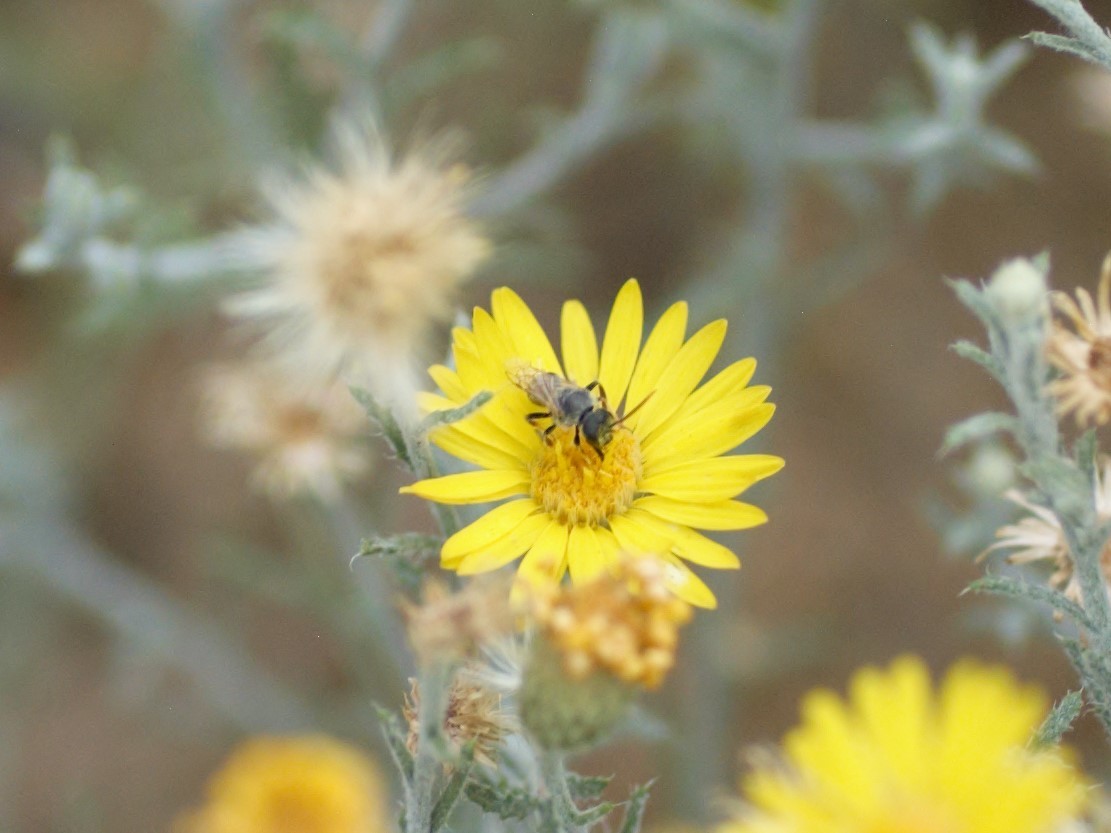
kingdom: Animalia
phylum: Arthropoda
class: Insecta
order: Hymenoptera
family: Halictidae
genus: Halictus
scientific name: Halictus ligatus
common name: Ligated furrow bee
